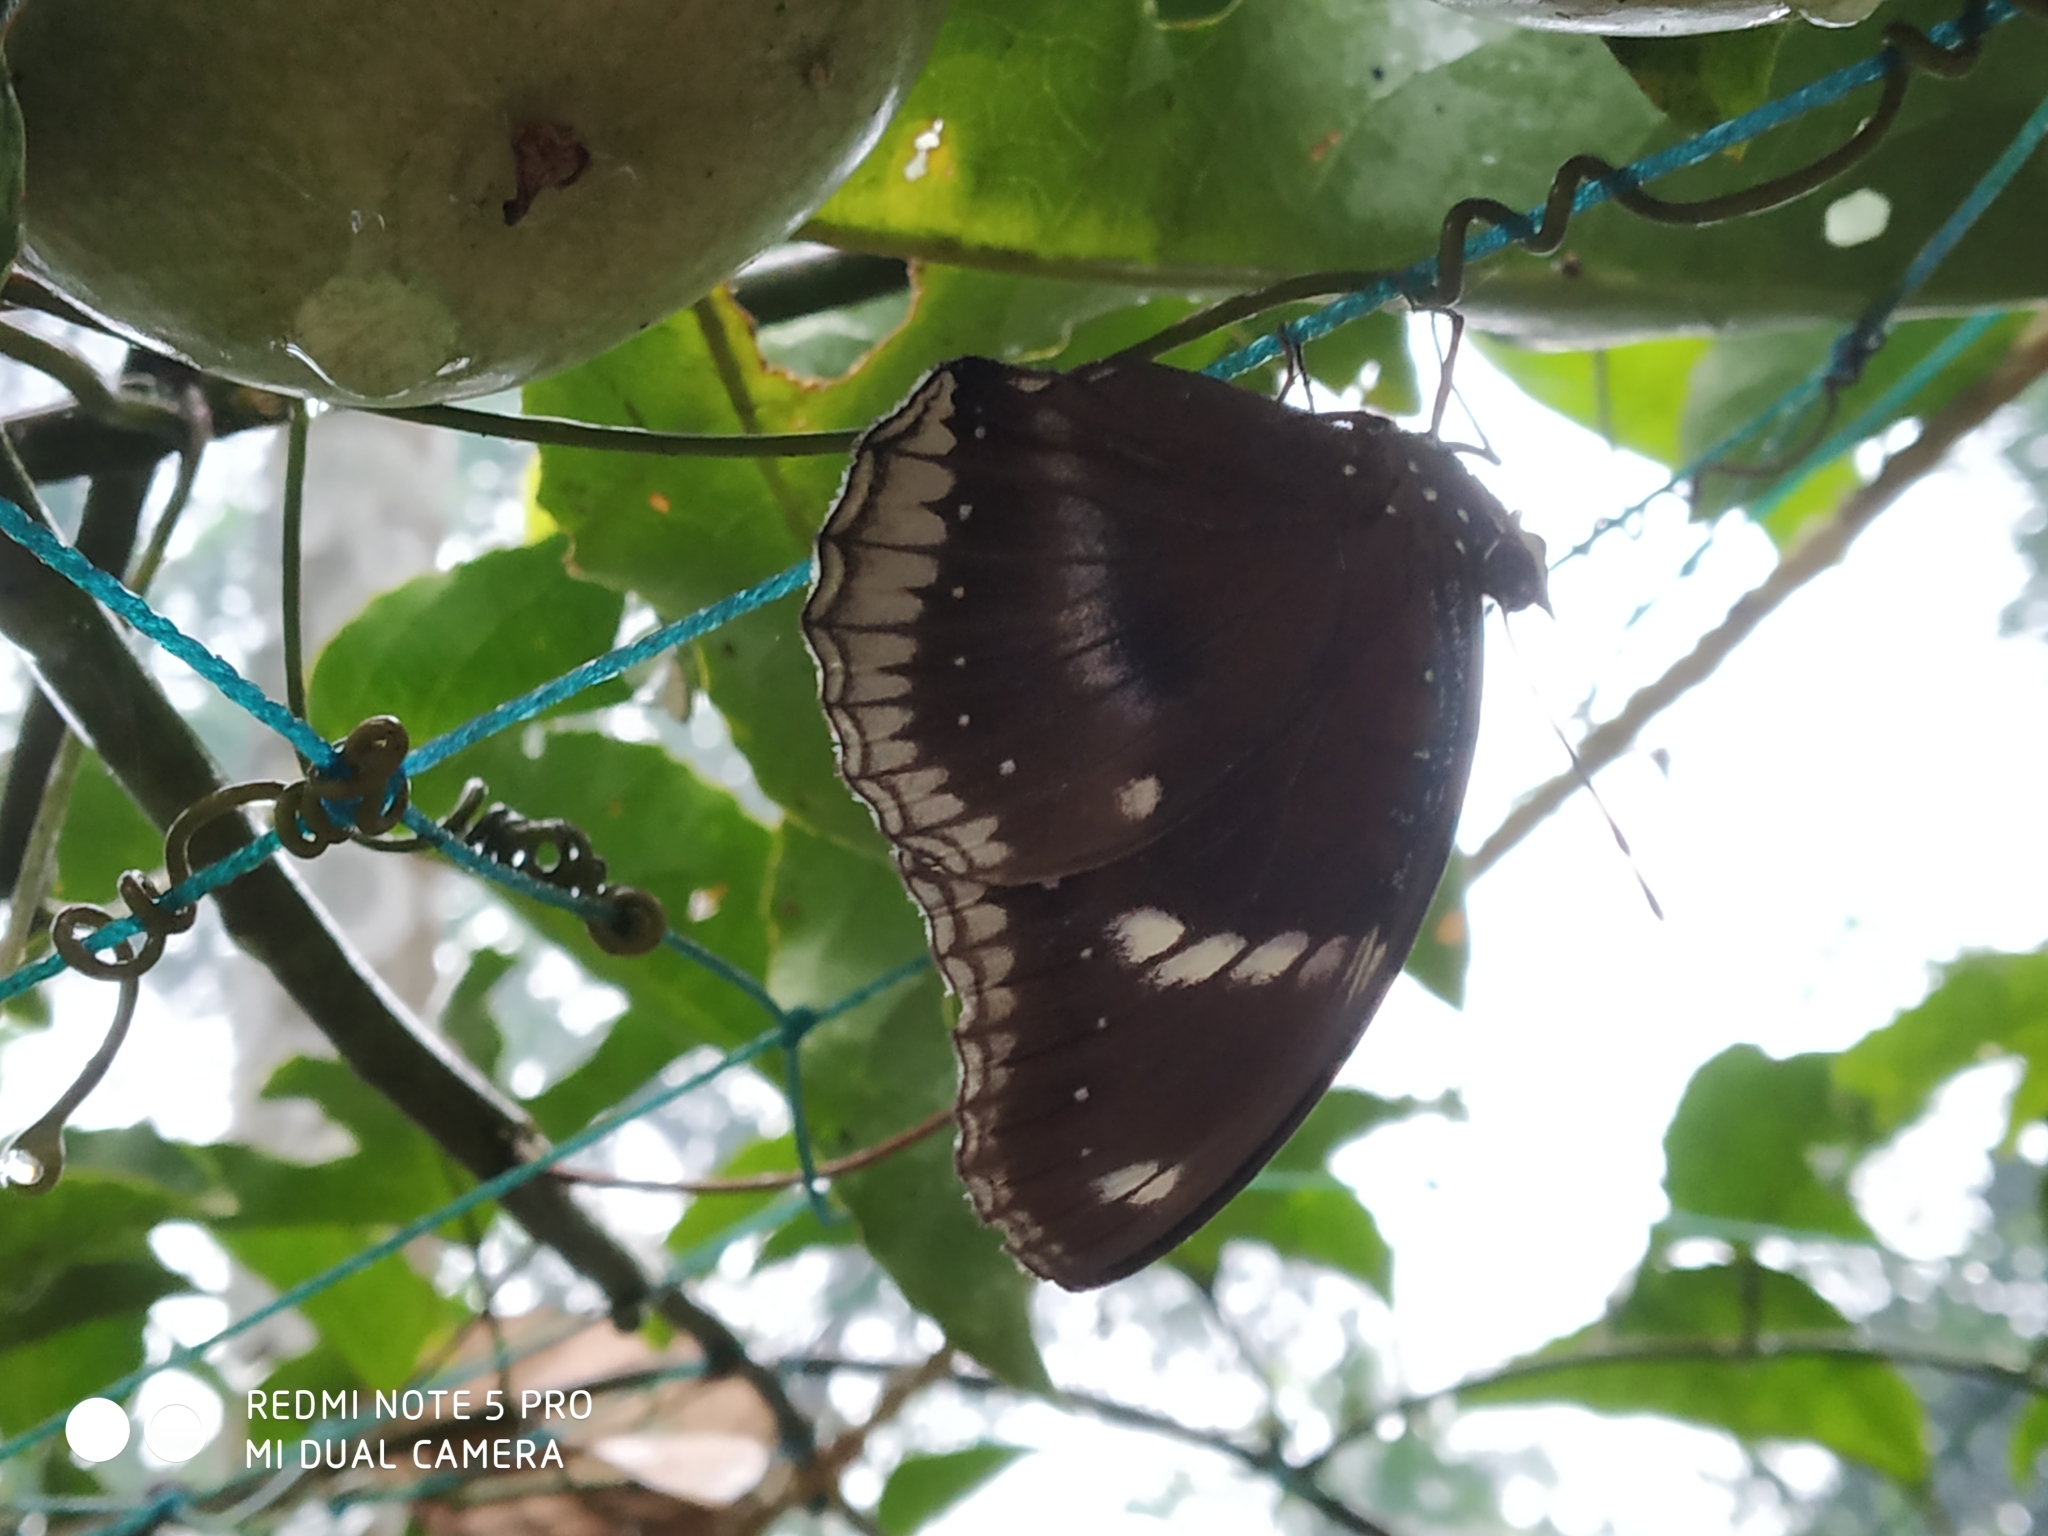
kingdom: Animalia
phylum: Arthropoda
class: Insecta
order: Lepidoptera
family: Nymphalidae
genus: Hypolimnas
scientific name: Hypolimnas bolina
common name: Great eggfly
